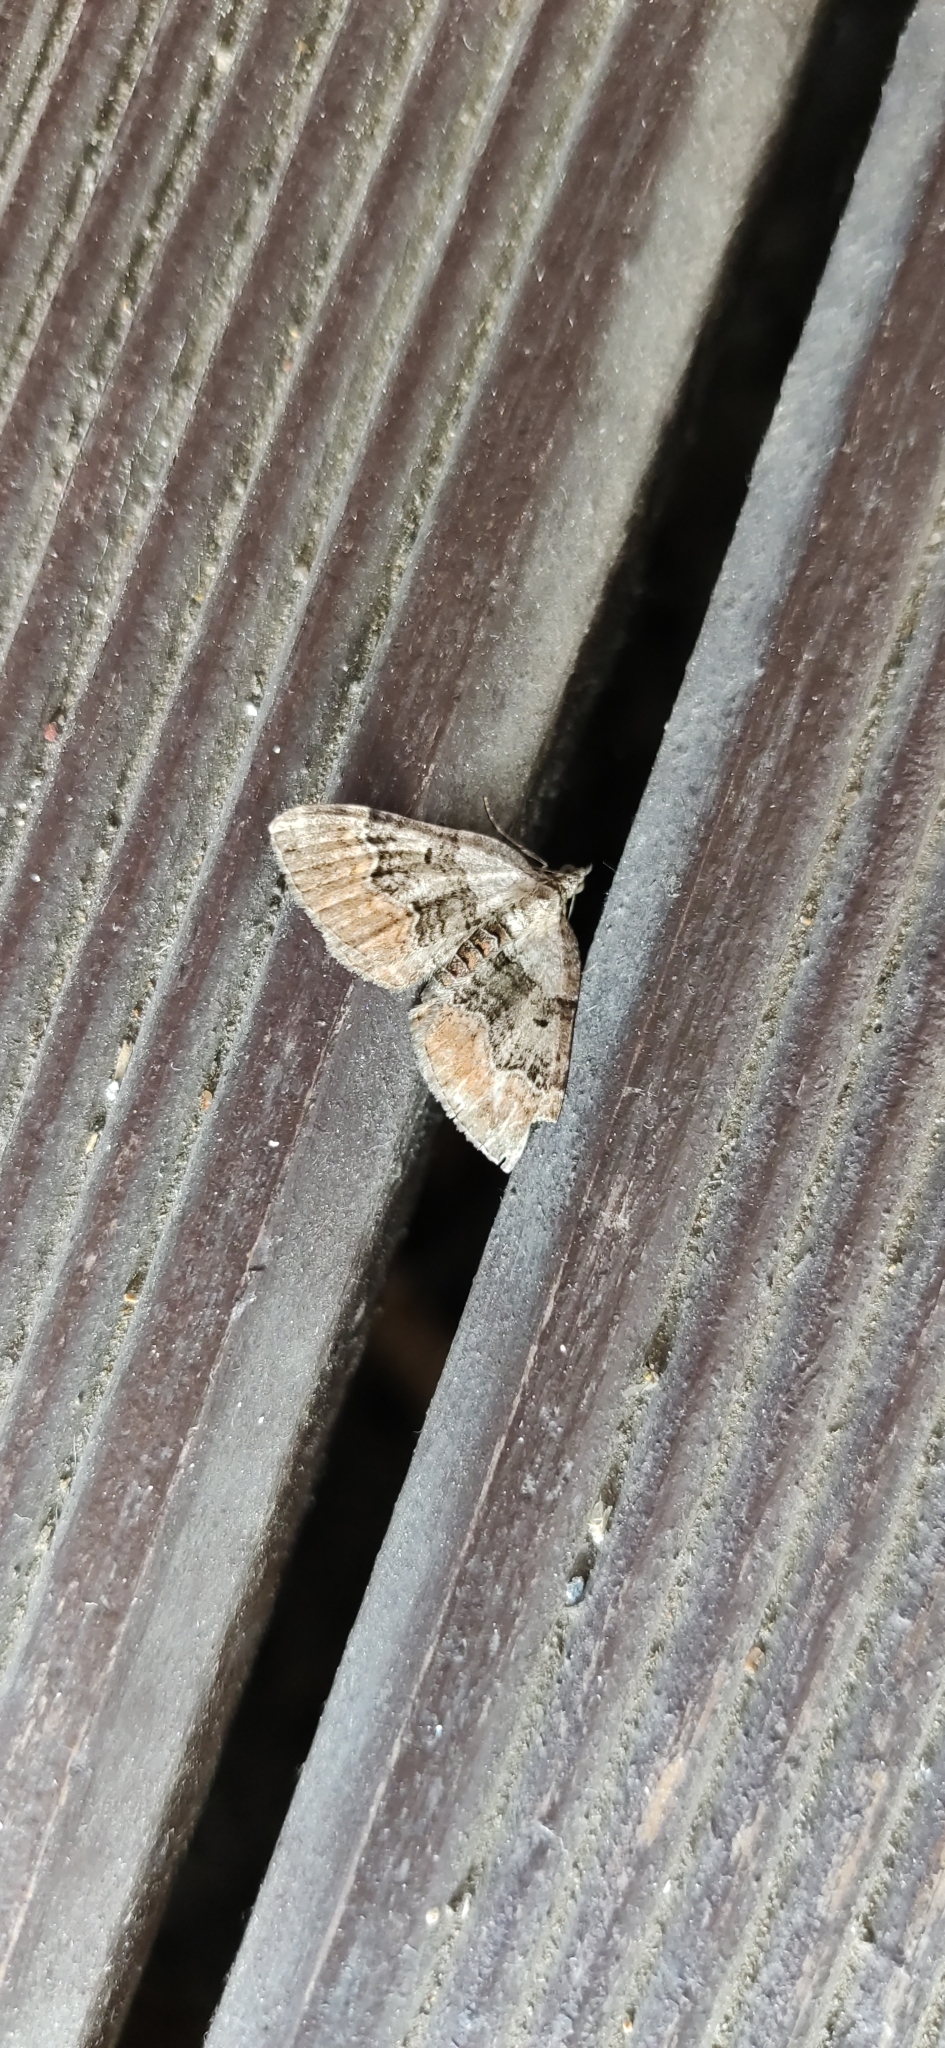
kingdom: Animalia
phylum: Arthropoda
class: Insecta
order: Lepidoptera
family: Geometridae
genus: Xanthorhoe
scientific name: Xanthorhoe quadrifasiata
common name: Large twin-spot carpet
